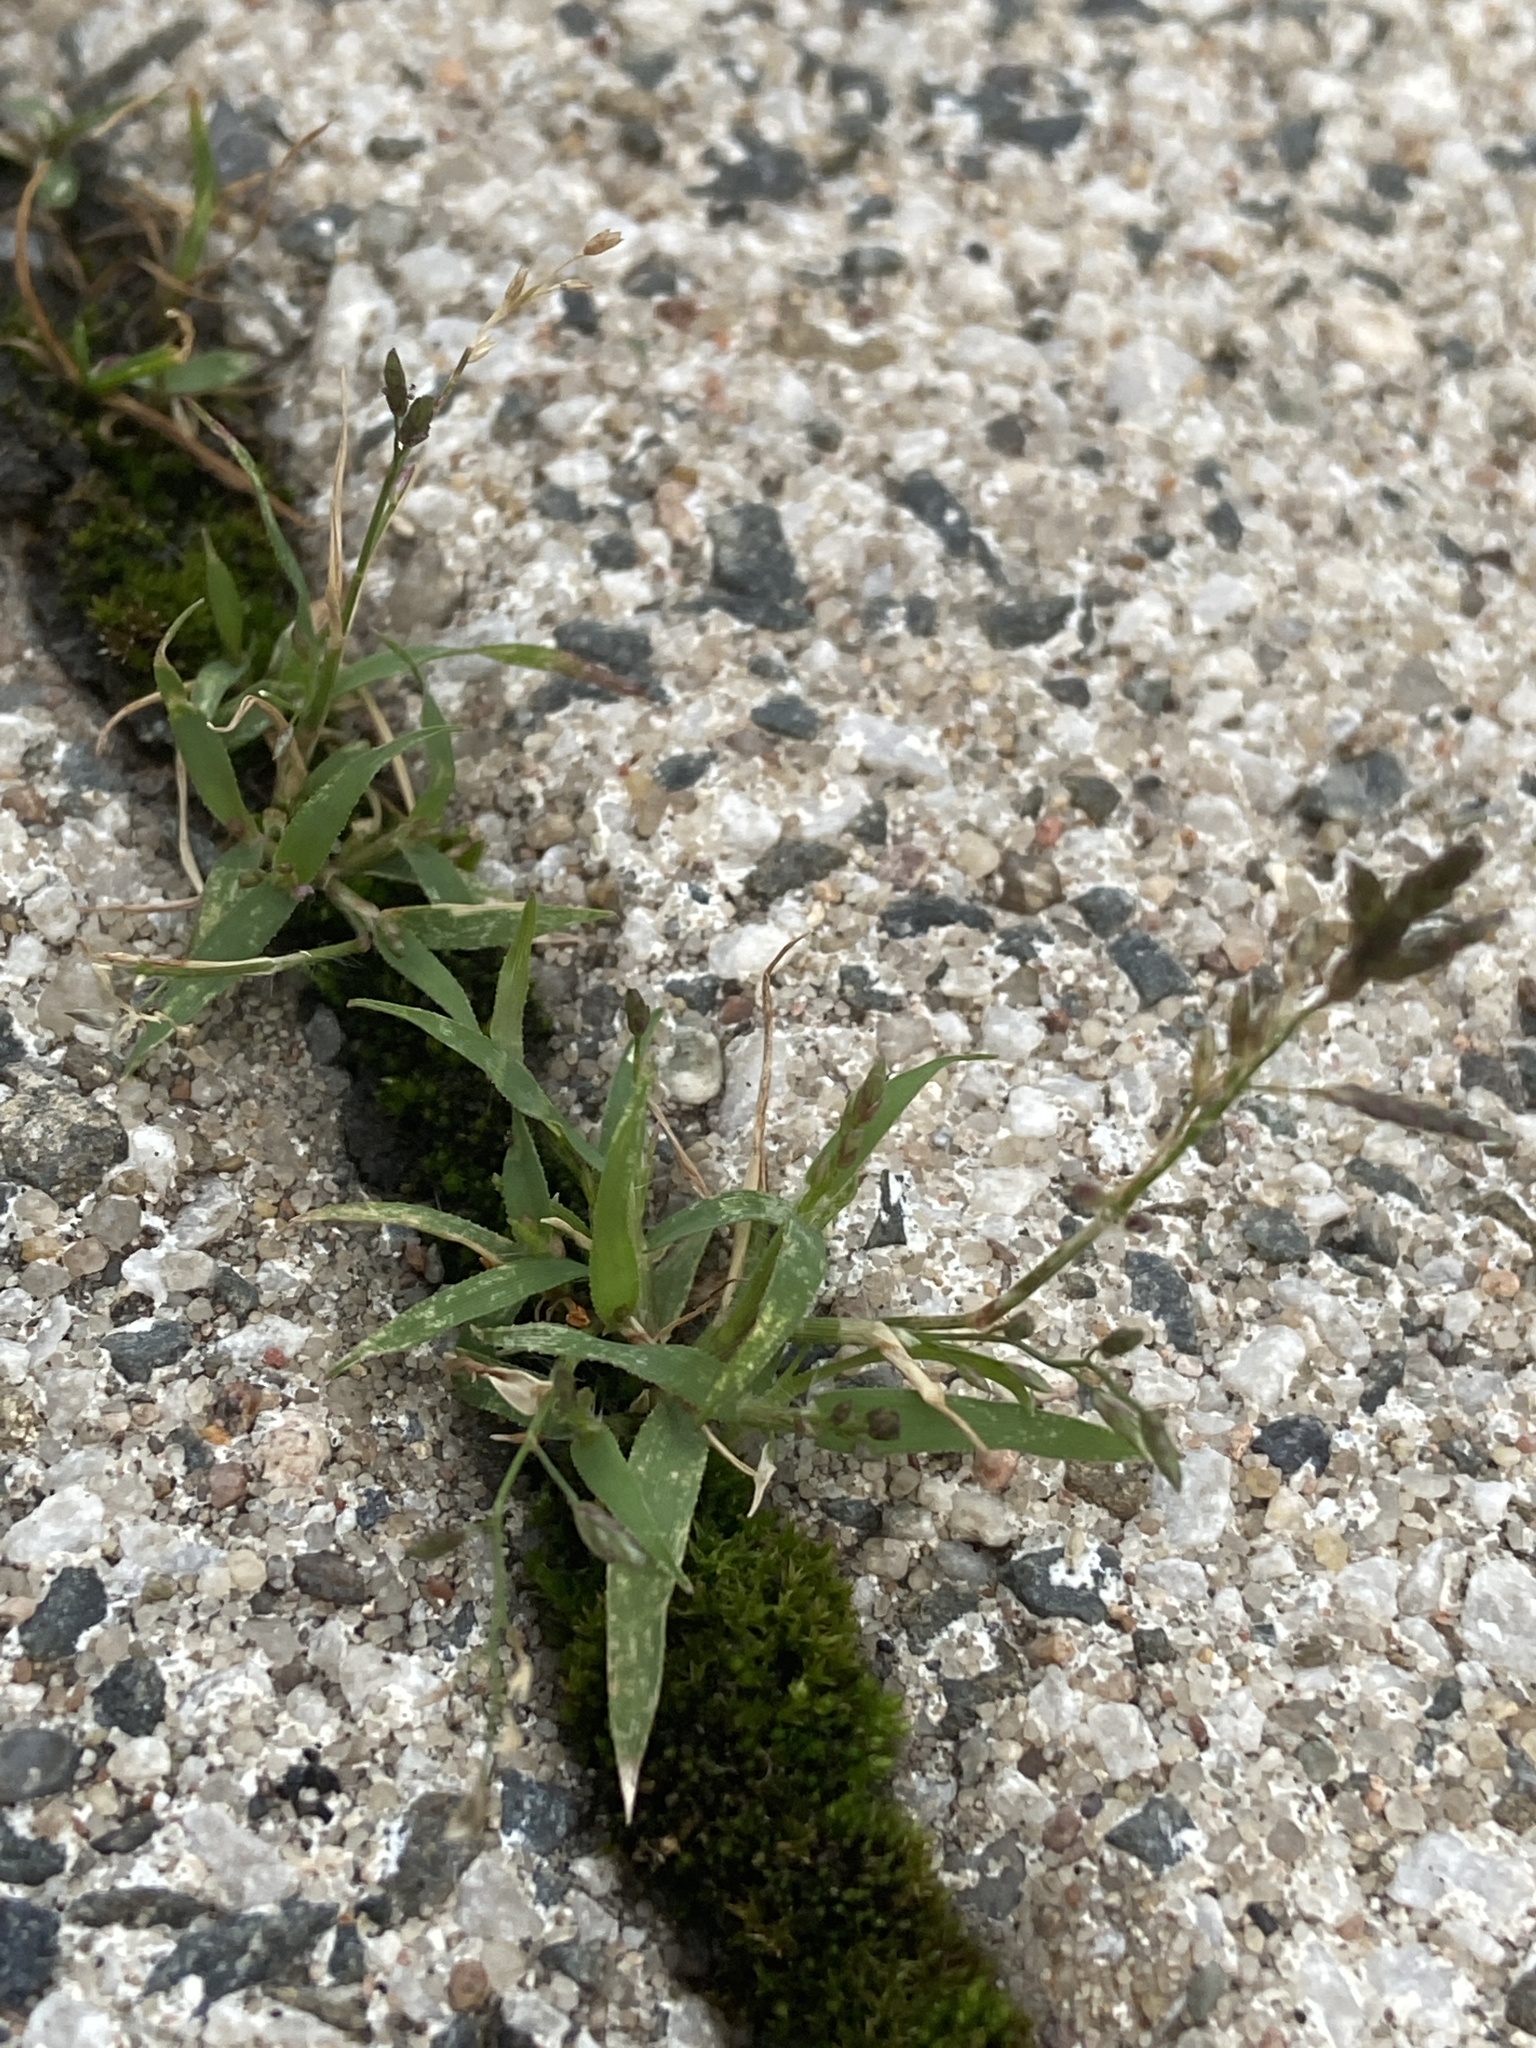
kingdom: Plantae
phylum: Tracheophyta
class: Liliopsida
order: Poales
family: Poaceae
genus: Eragrostis
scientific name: Eragrostis minor
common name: Small love-grass
